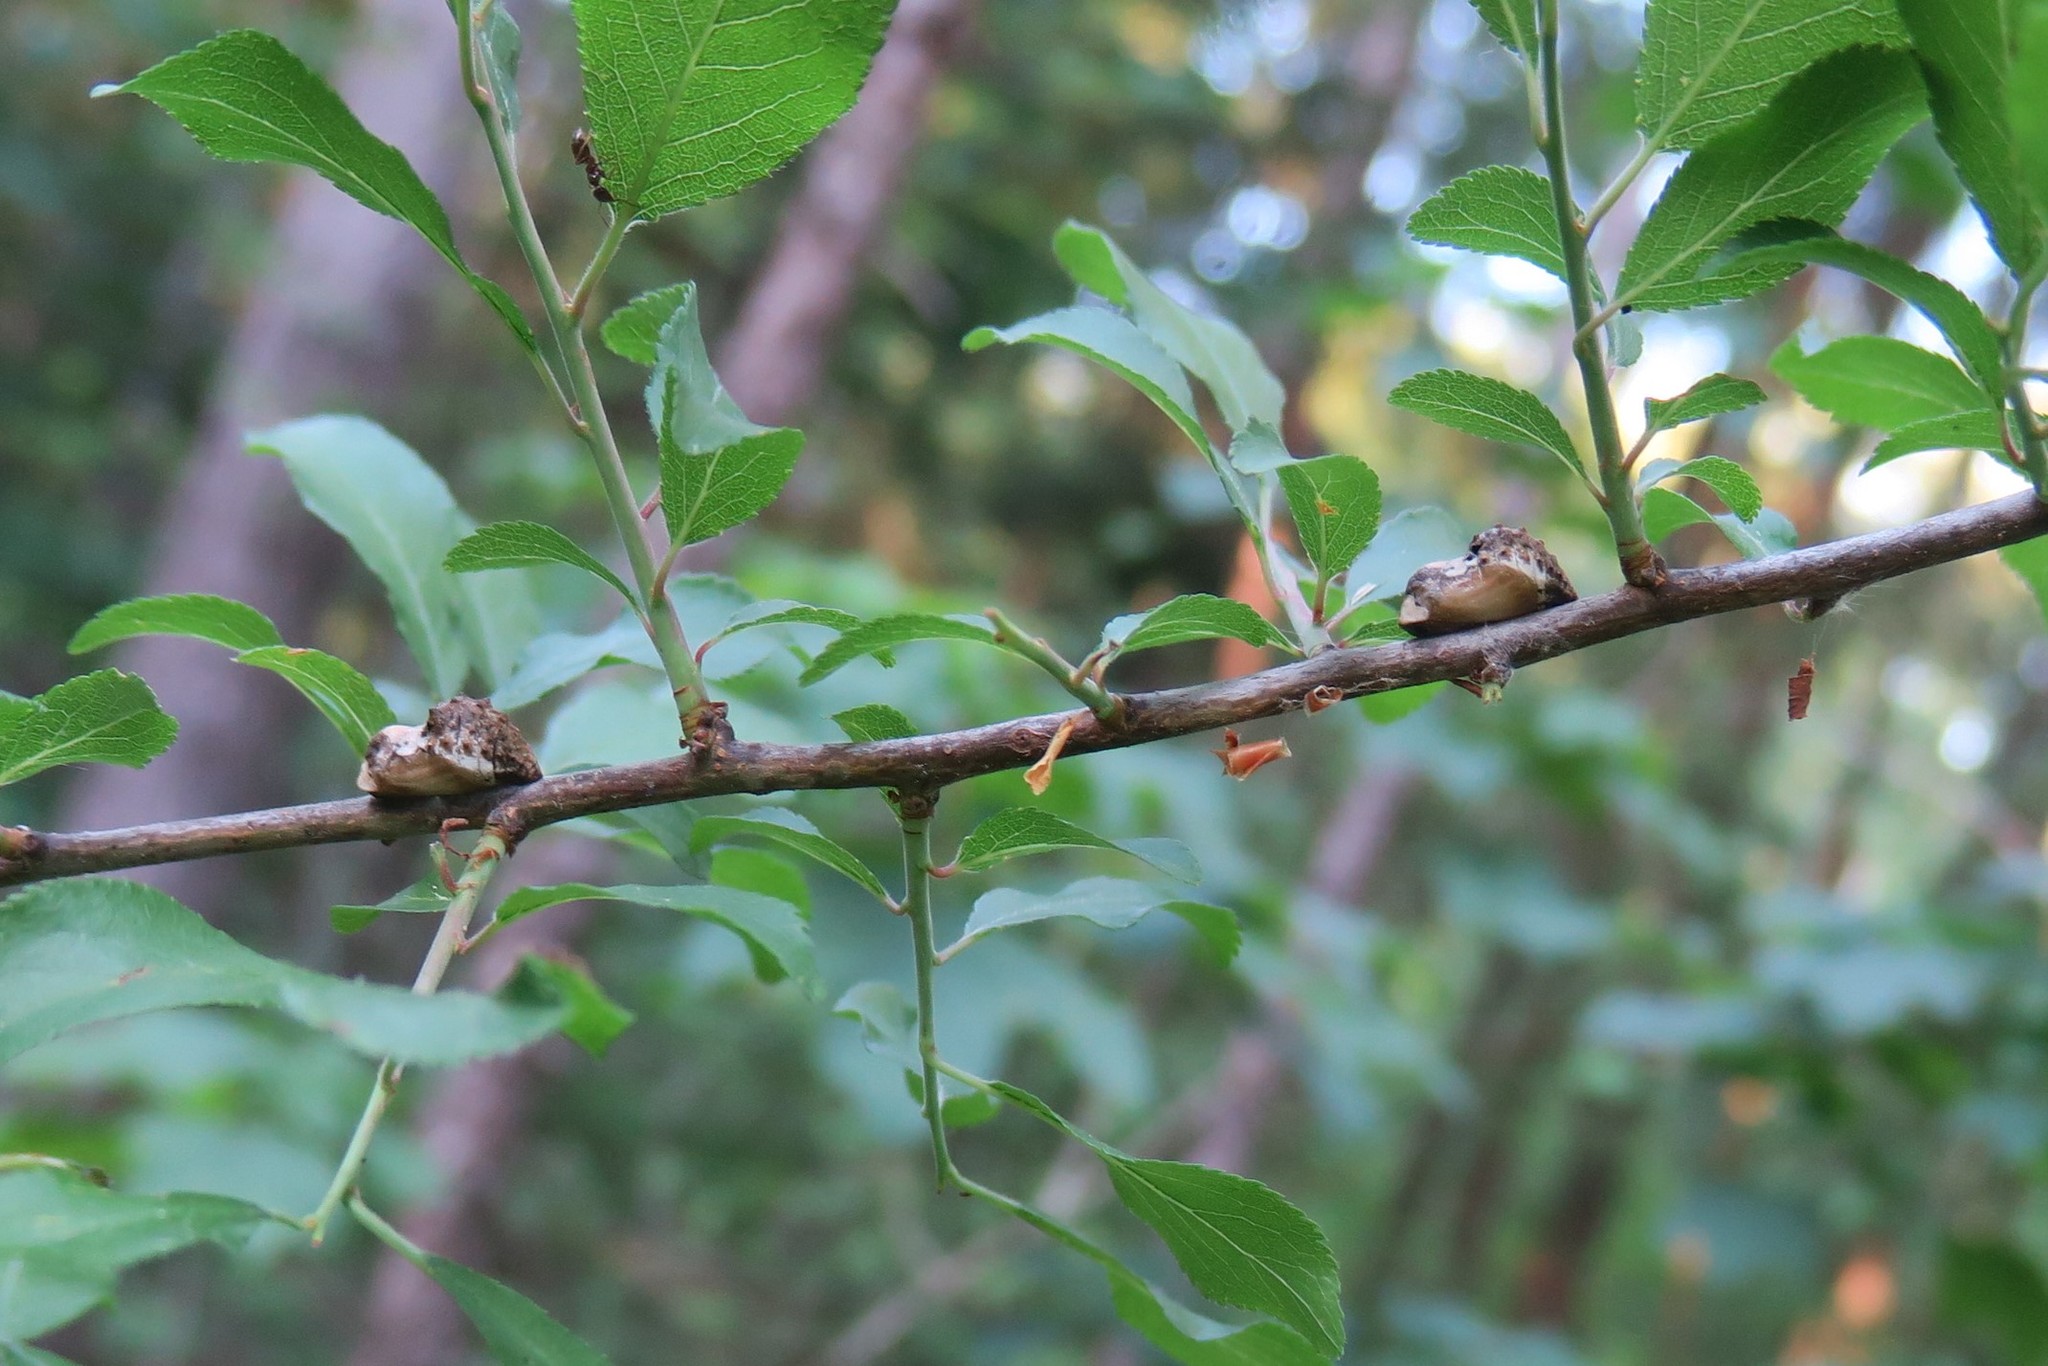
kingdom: Animalia
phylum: Arthropoda
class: Insecta
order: Lepidoptera
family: Lycaenidae
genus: Fixsenia
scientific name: Fixsenia pruni
